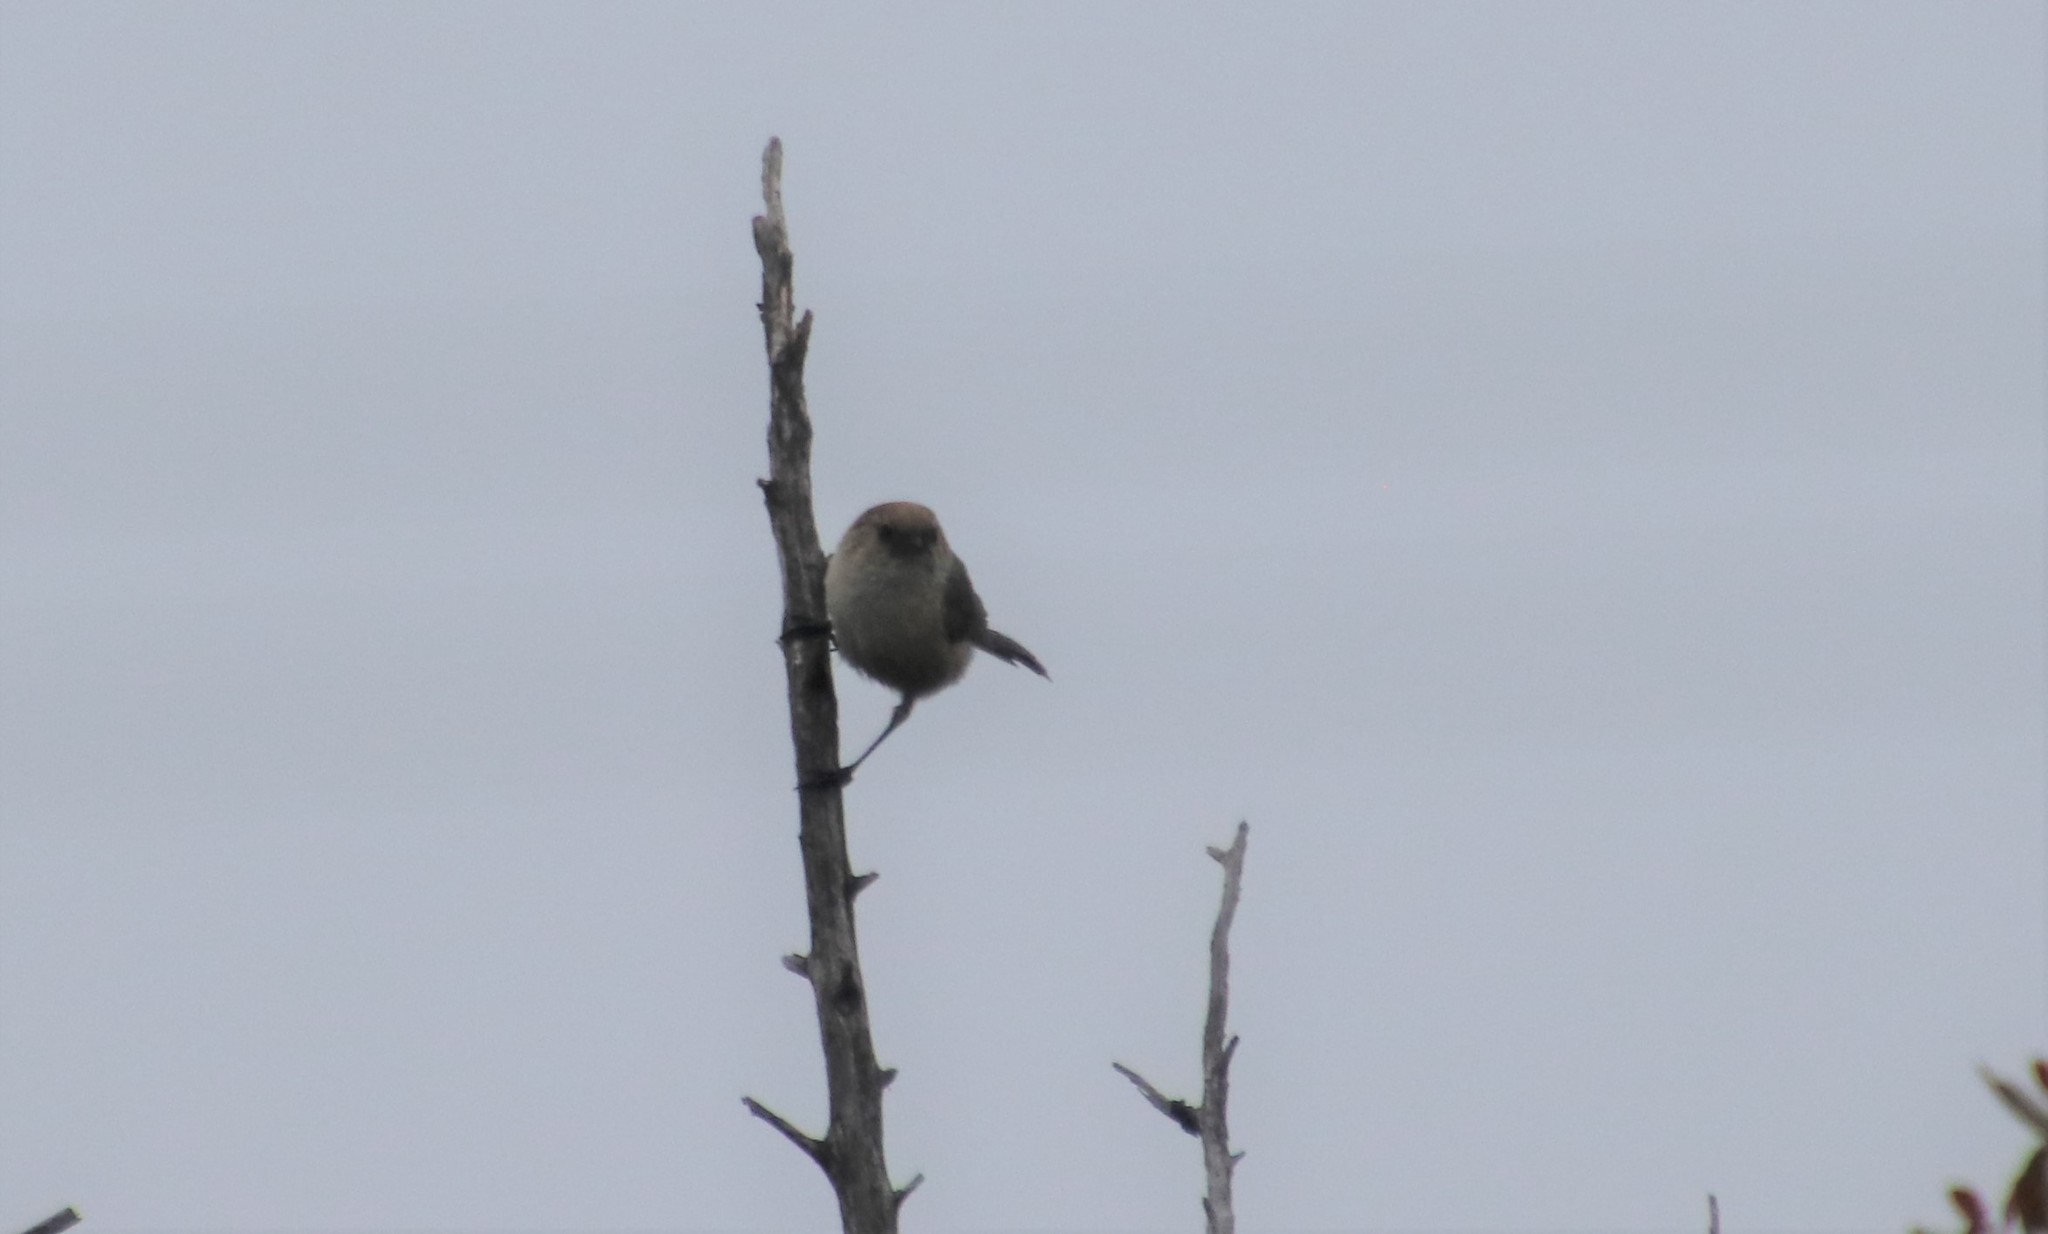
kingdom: Animalia
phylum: Chordata
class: Aves
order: Passeriformes
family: Aegithalidae
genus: Psaltriparus
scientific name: Psaltriparus minimus
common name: American bushtit
